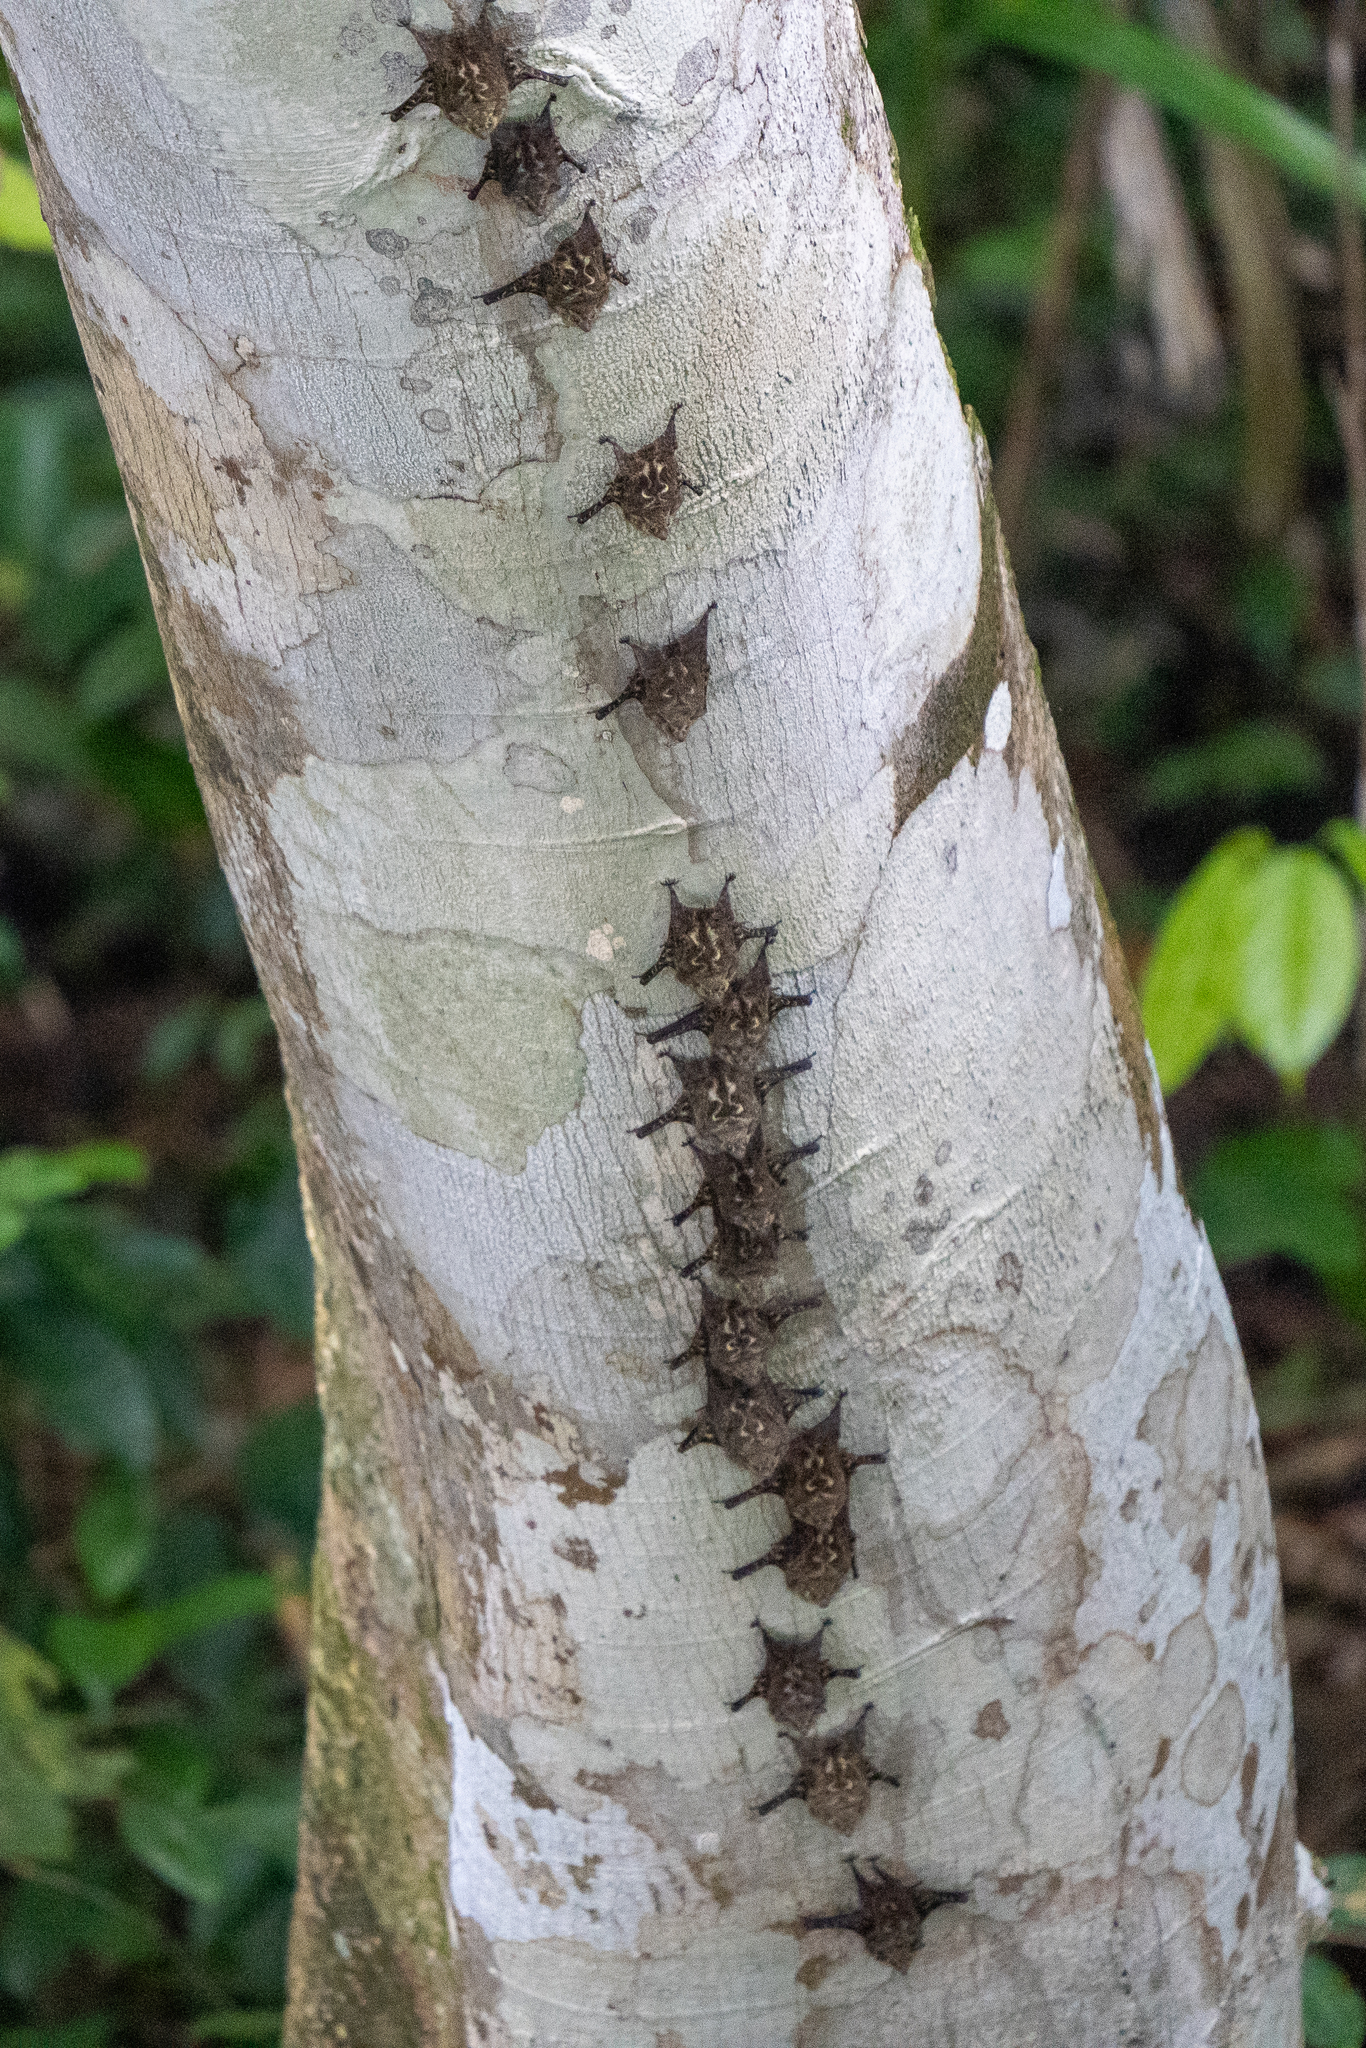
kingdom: Animalia
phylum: Chordata
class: Mammalia
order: Chiroptera
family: Emballonuridae
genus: Rhynchonycteris
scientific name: Rhynchonycteris naso
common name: Proboscis bat
